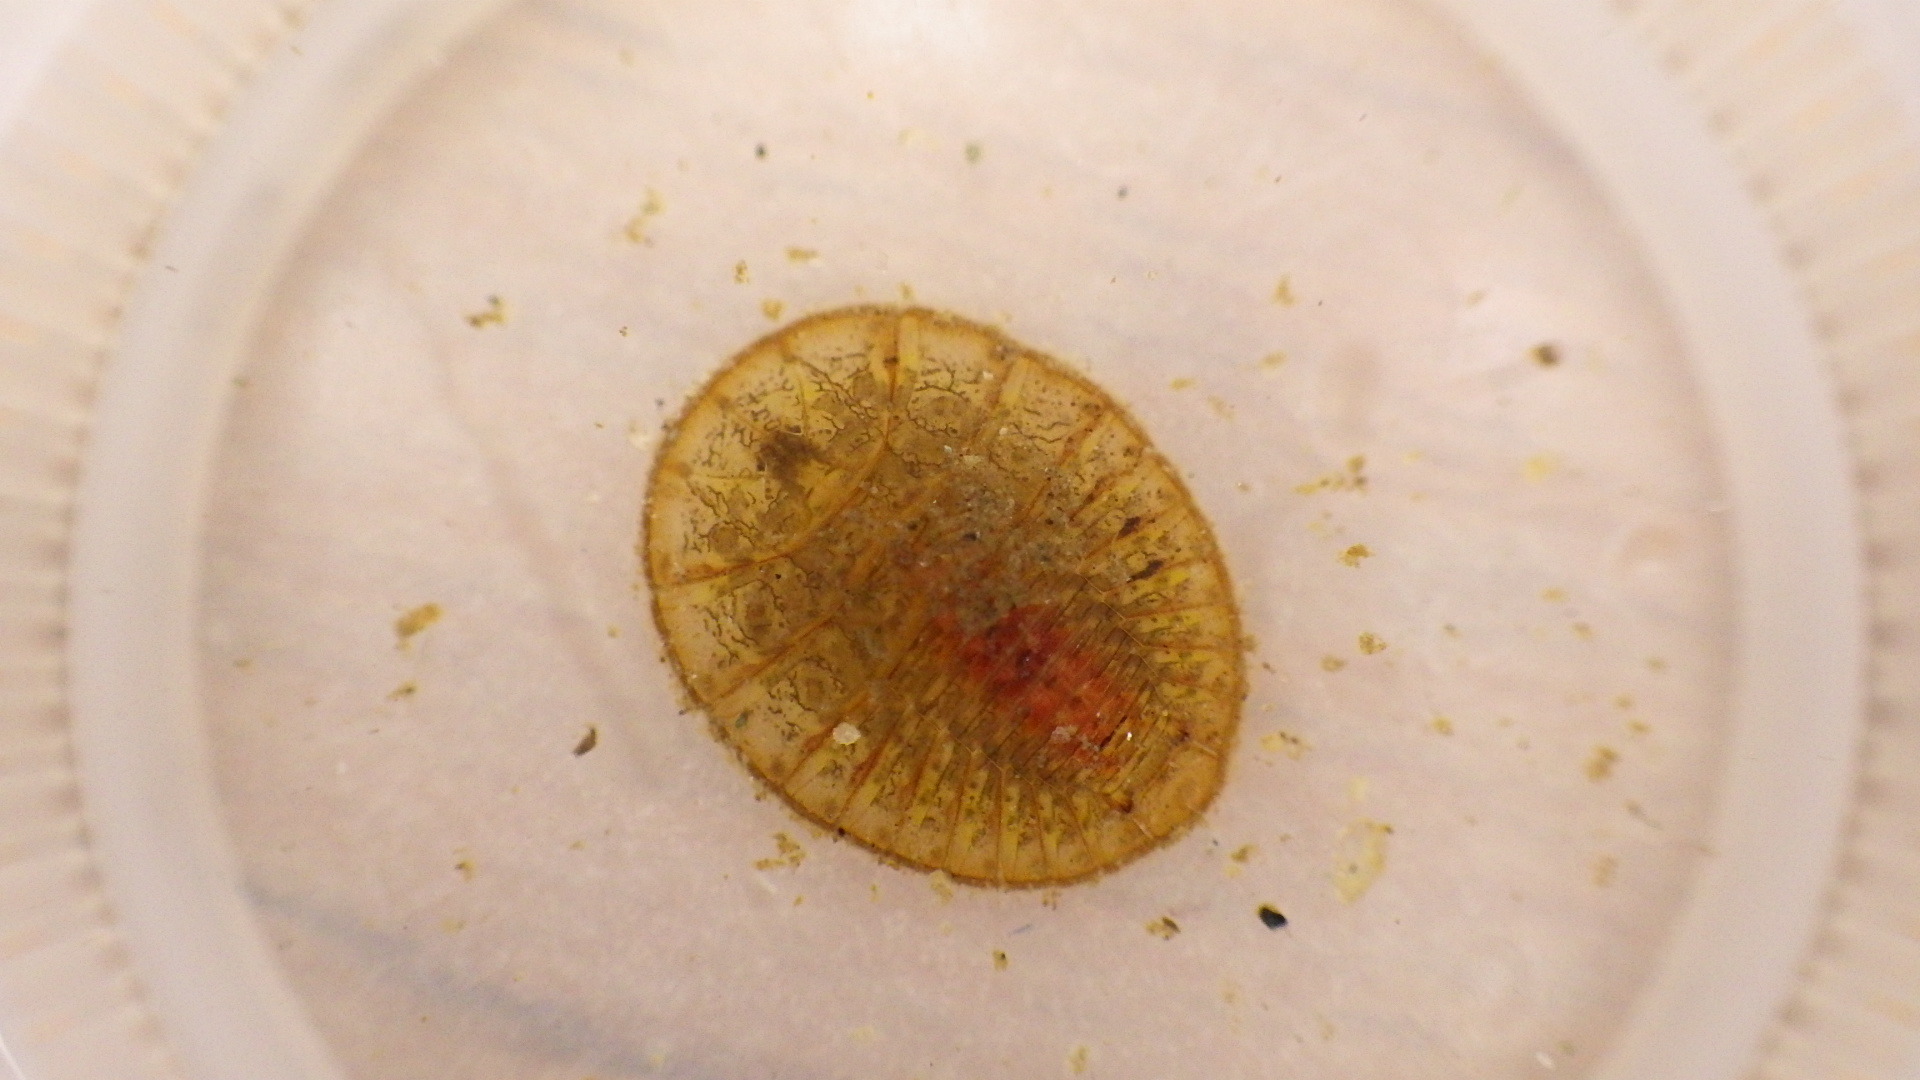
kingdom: Animalia
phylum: Arthropoda
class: Insecta
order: Coleoptera
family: Psephenidae
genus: Psephenus
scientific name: Psephenus herricki
